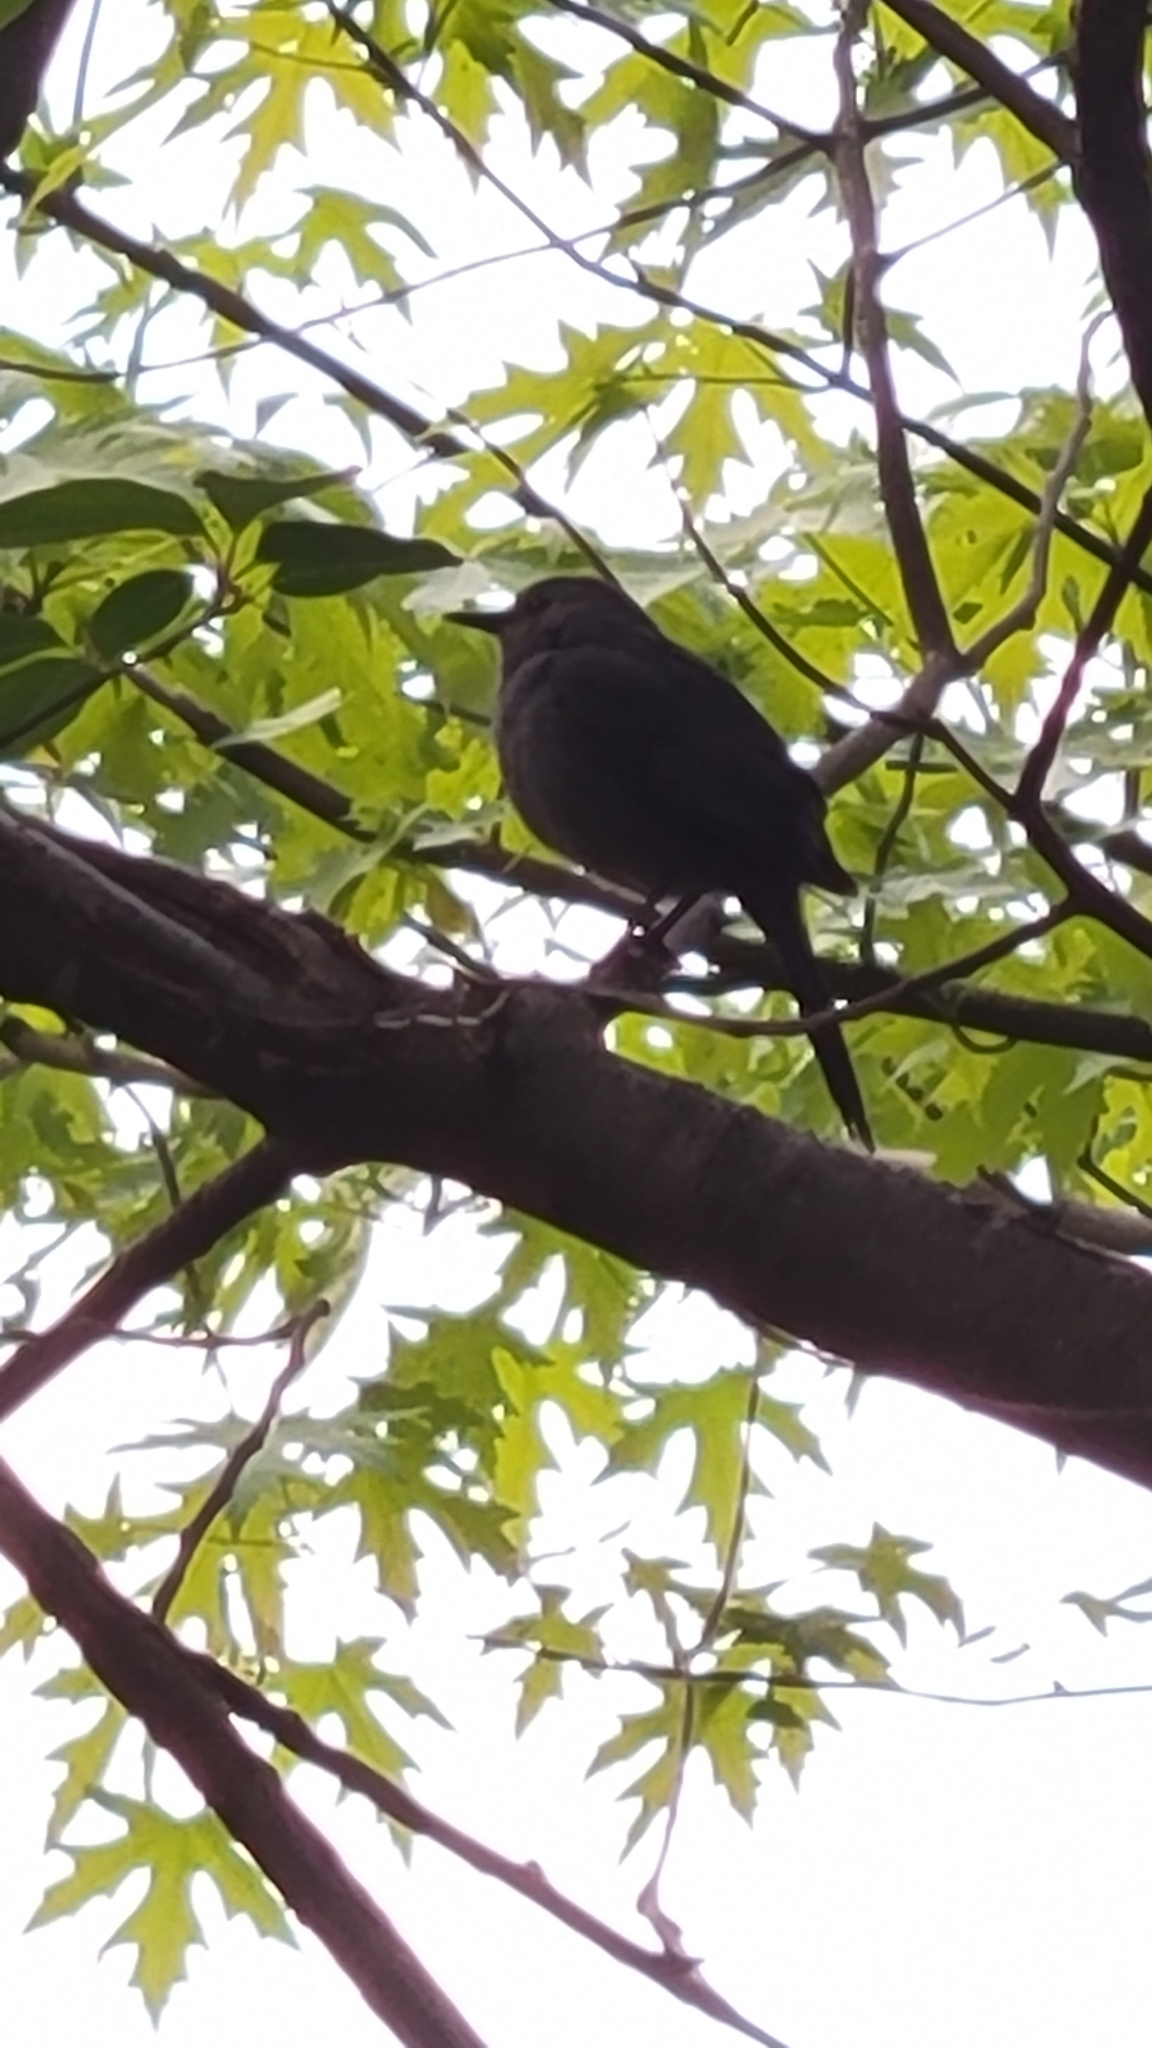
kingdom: Animalia
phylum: Chordata
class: Aves
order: Passeriformes
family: Mimidae
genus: Dumetella
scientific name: Dumetella carolinensis
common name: Gray catbird
